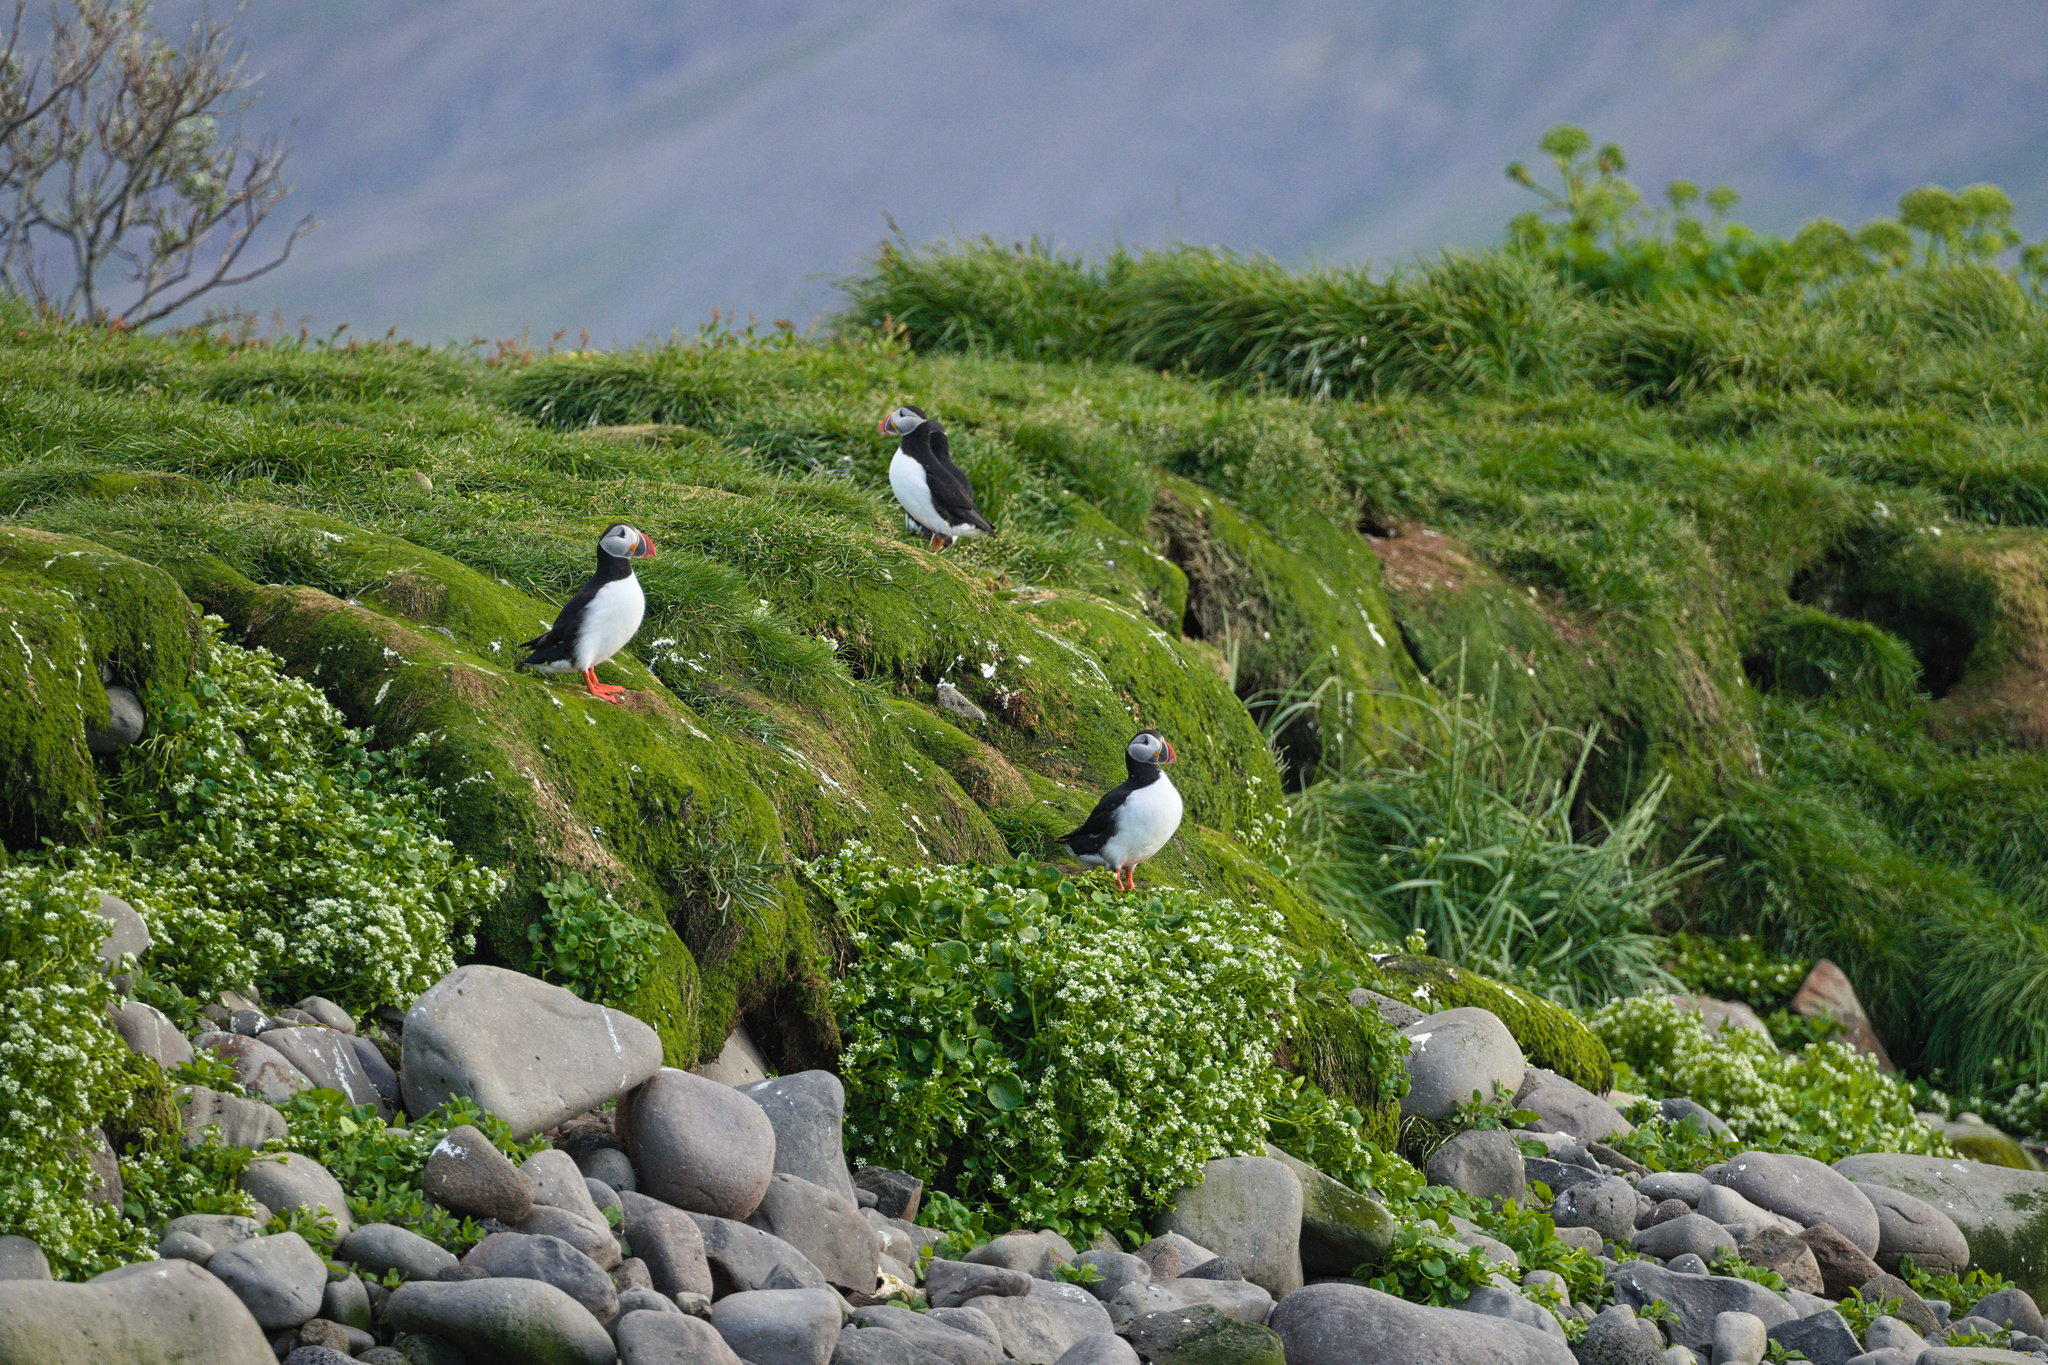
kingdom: Animalia
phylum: Chordata
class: Aves
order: Charadriiformes
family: Alcidae
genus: Fratercula
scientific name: Fratercula arctica
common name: Atlantic puffin
